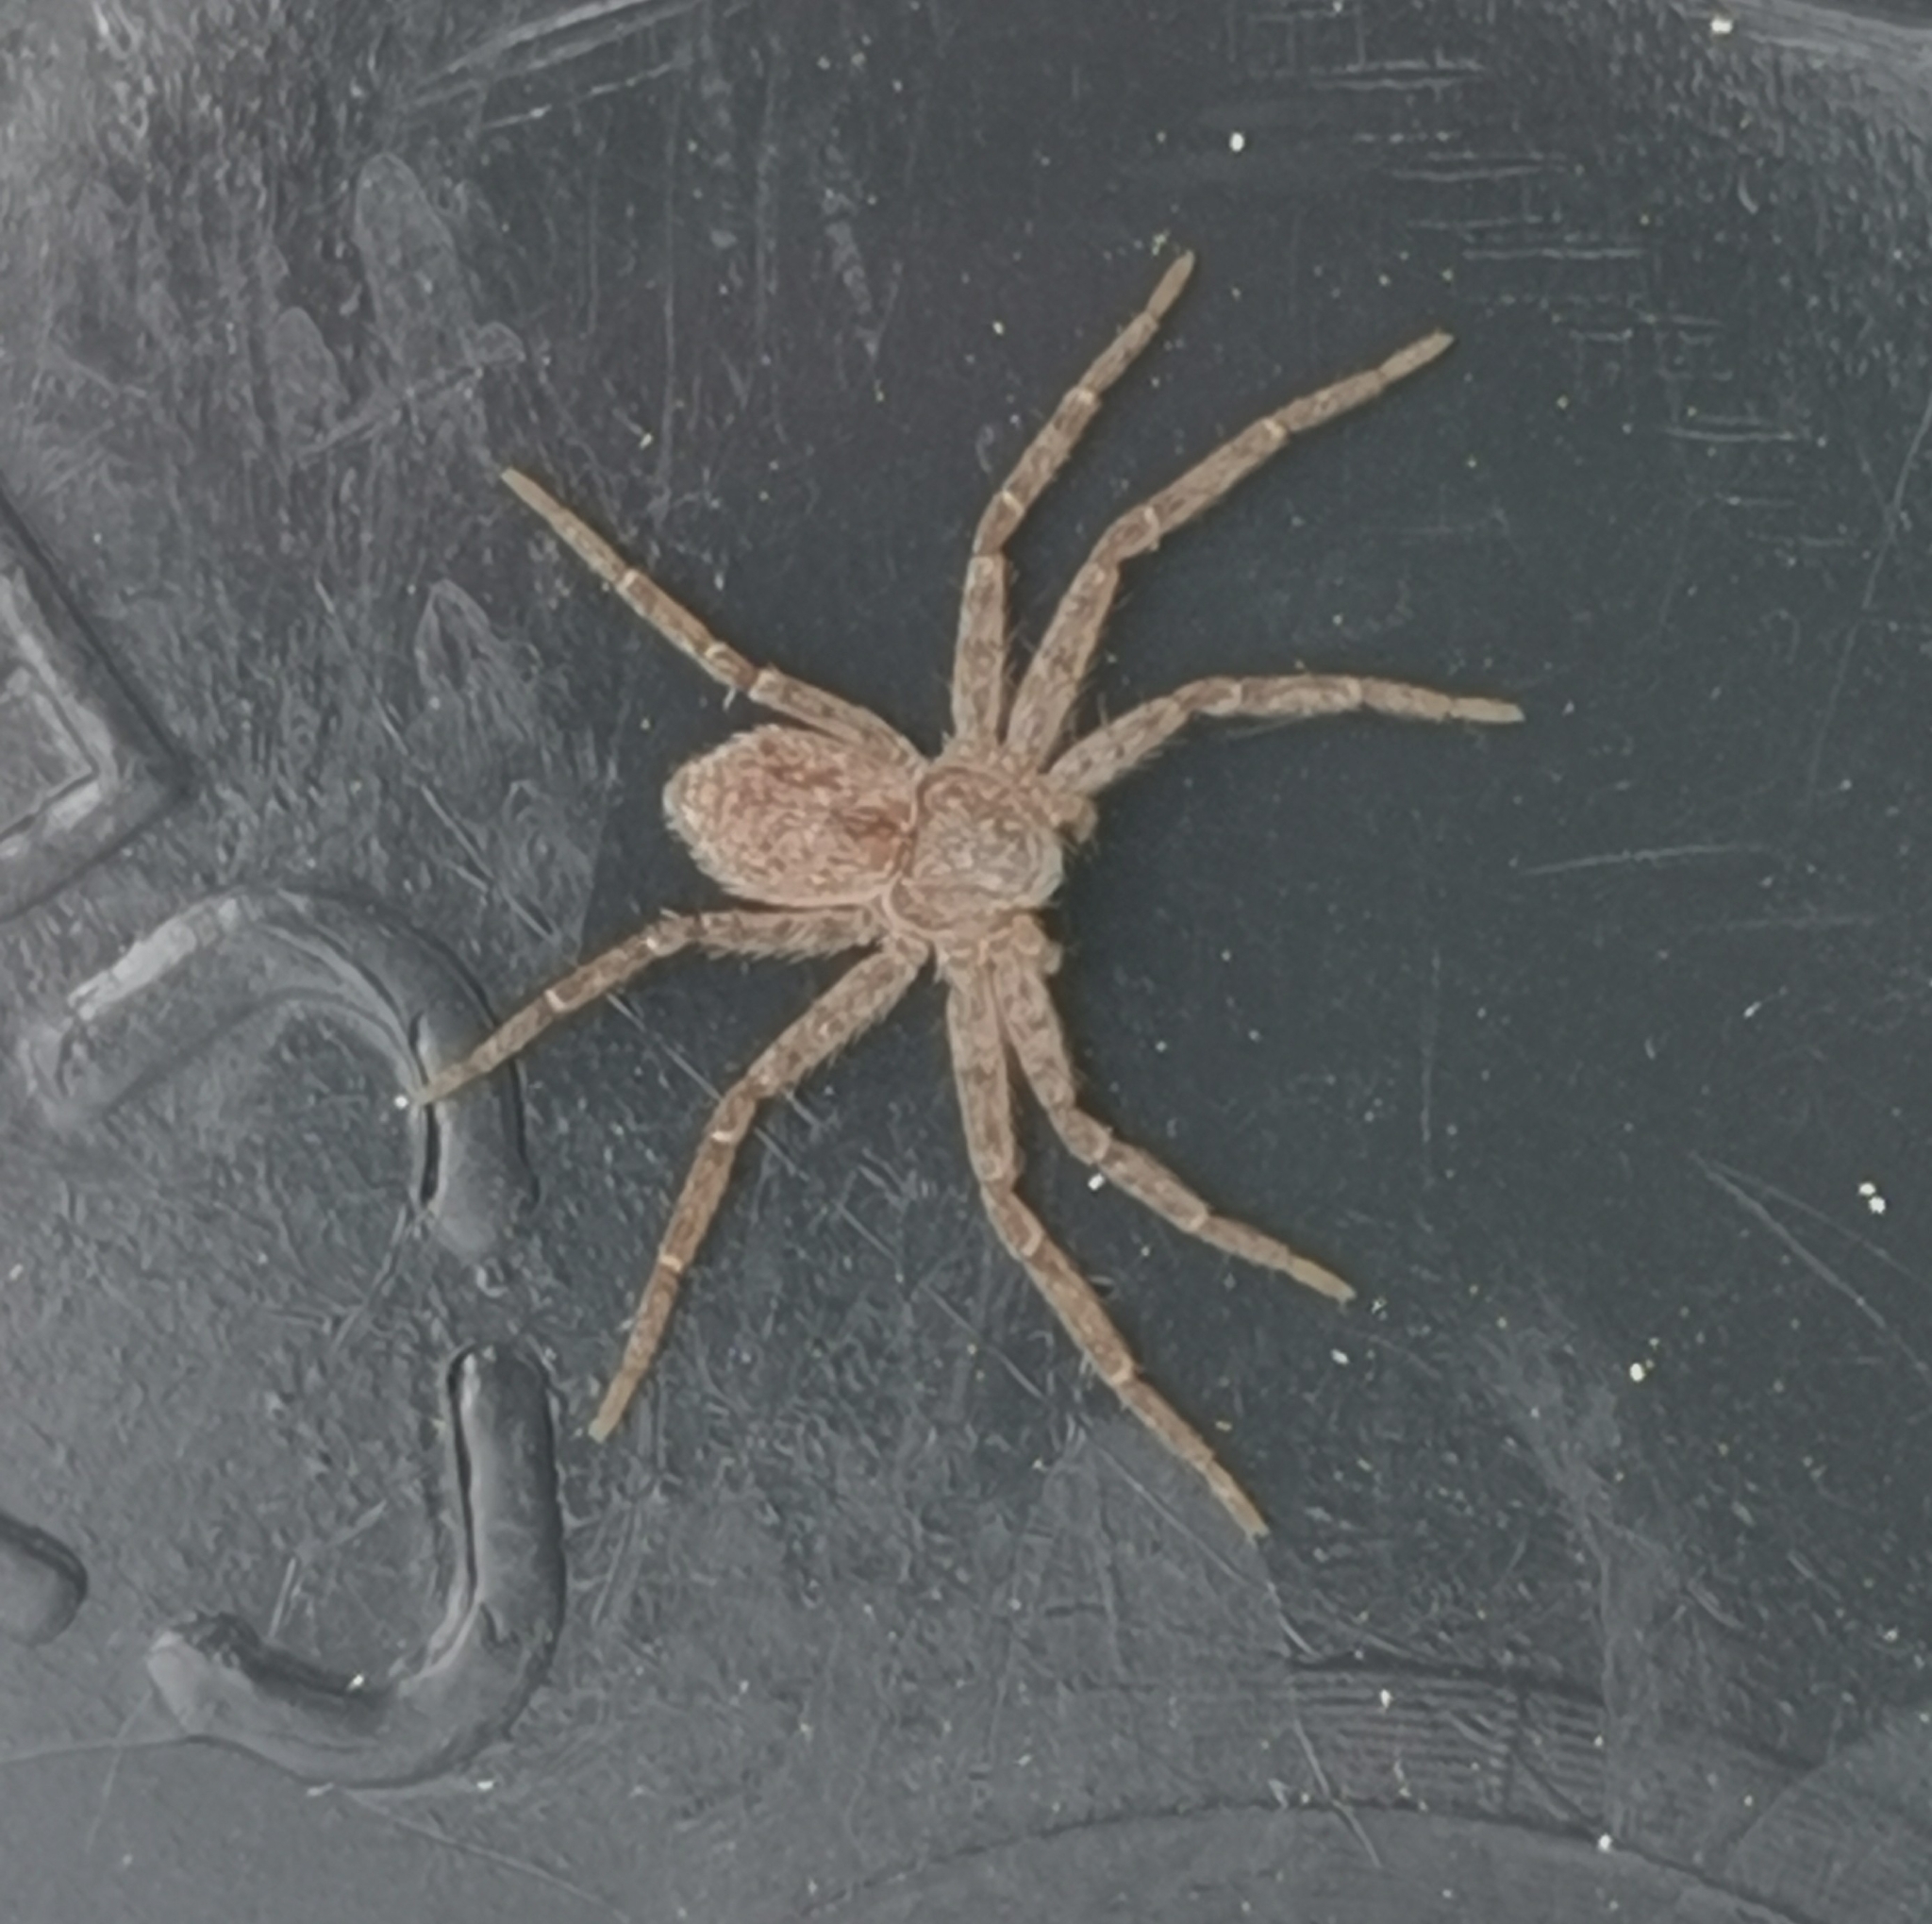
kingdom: Animalia
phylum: Arthropoda
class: Arachnida
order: Araneae
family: Philodromidae
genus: Philodromus
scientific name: Philodromus fuscomarginatus
